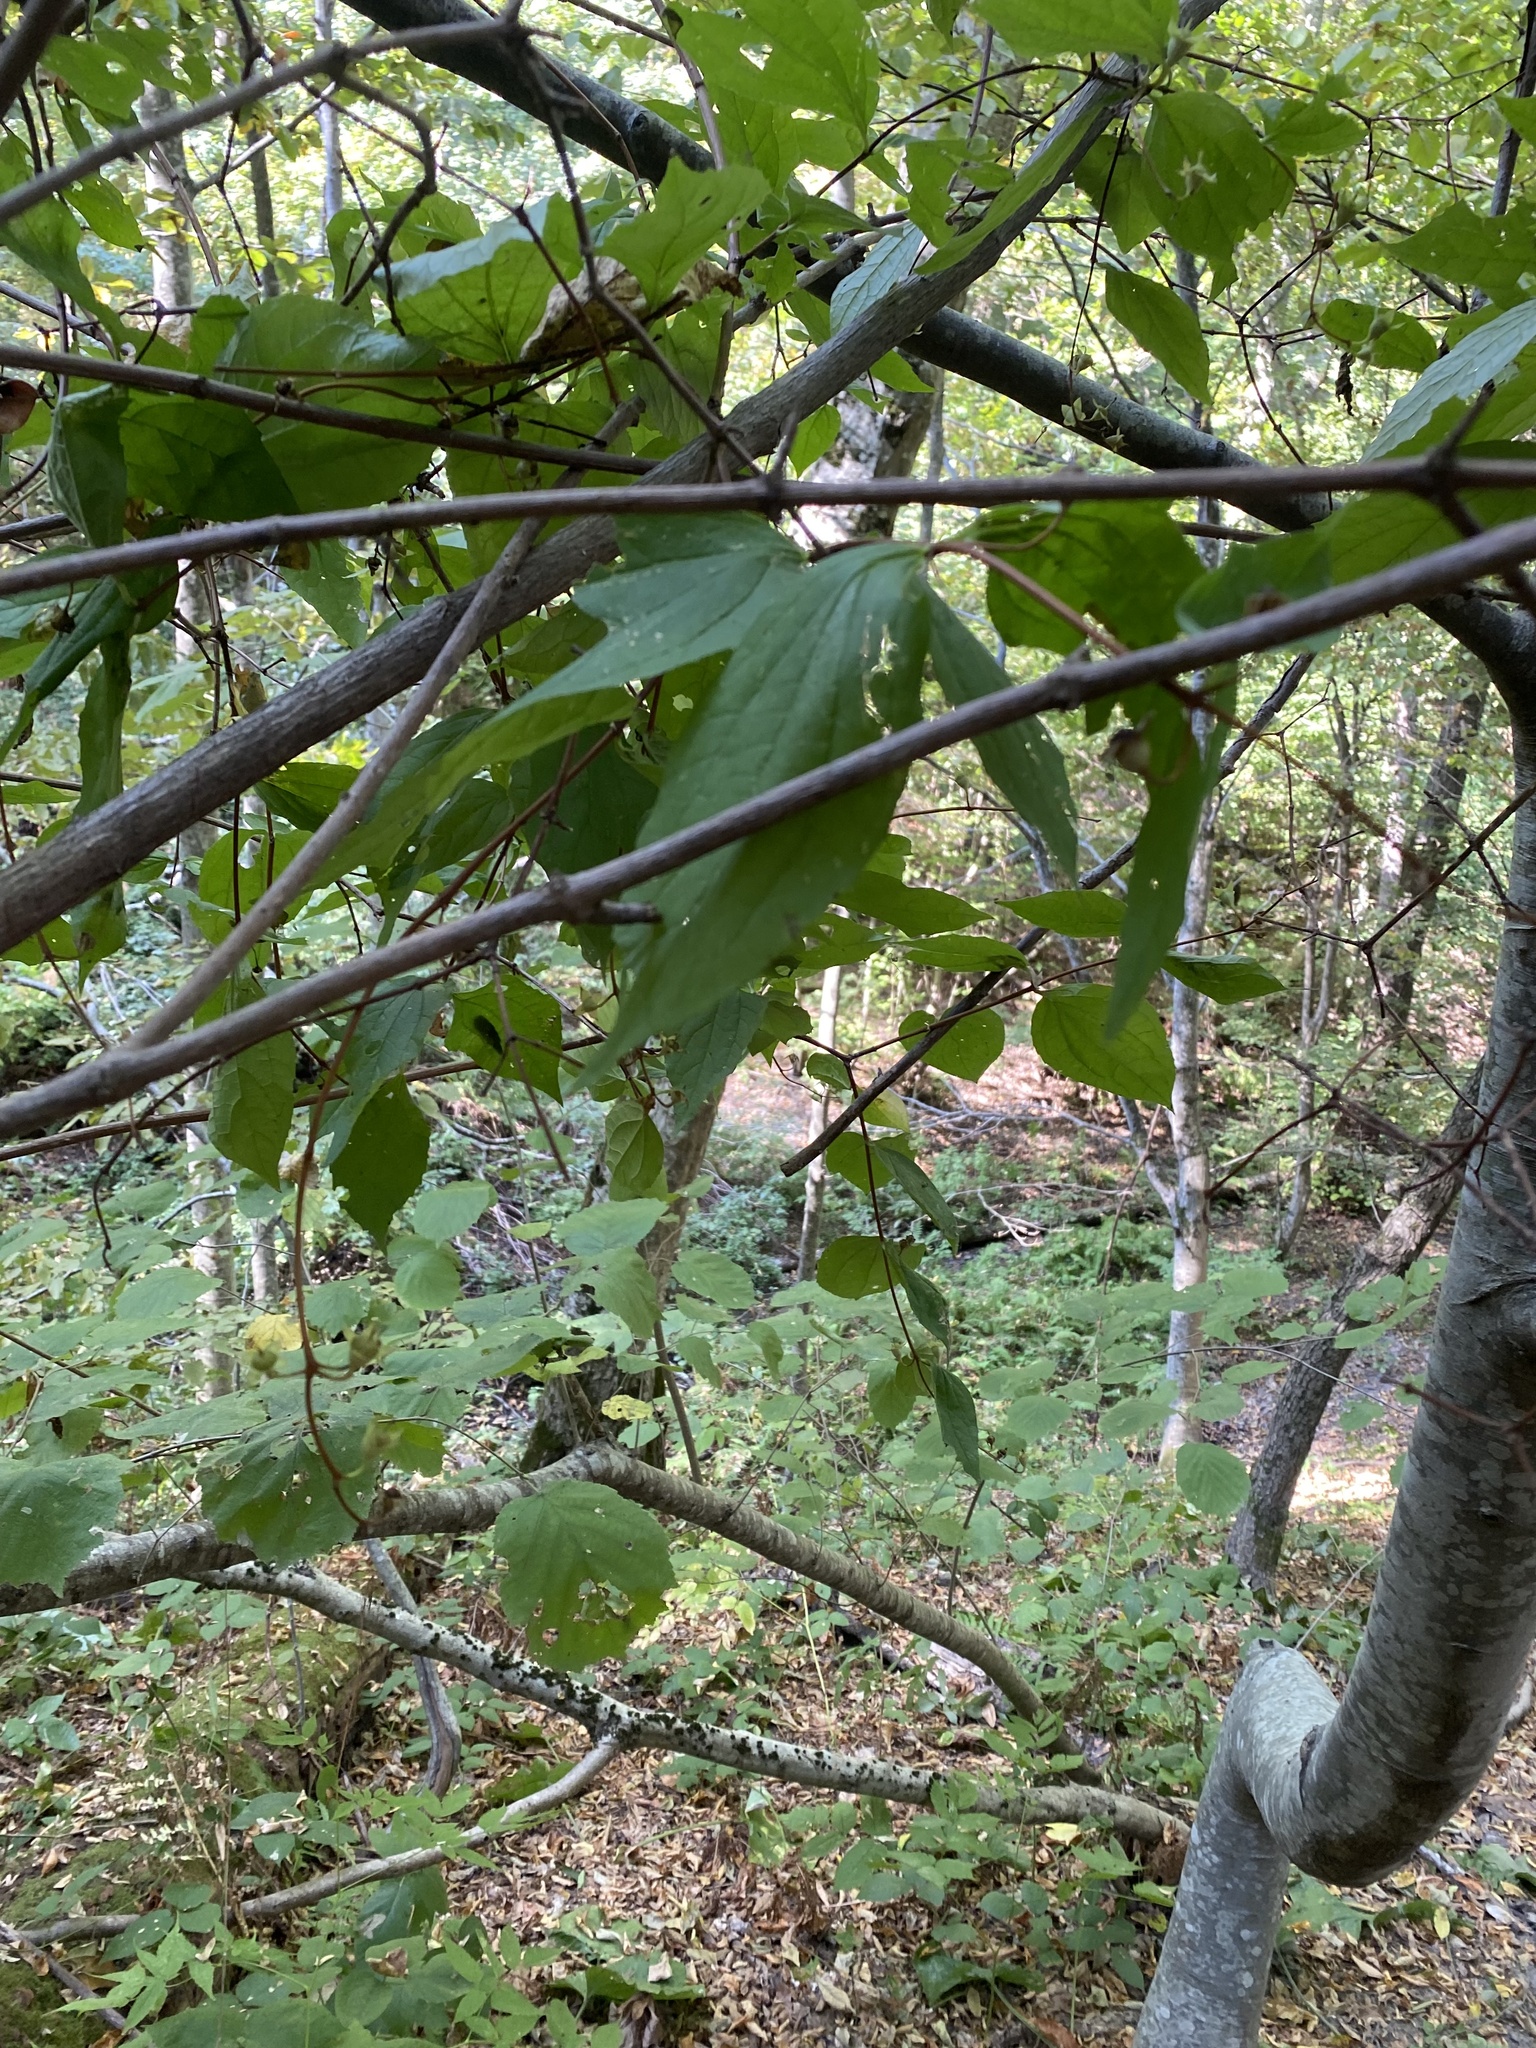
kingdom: Plantae
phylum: Tracheophyta
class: Magnoliopsida
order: Cornales
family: Hydrangeaceae
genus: Philadelphus
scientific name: Philadelphus coronarius
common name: Mock orange
